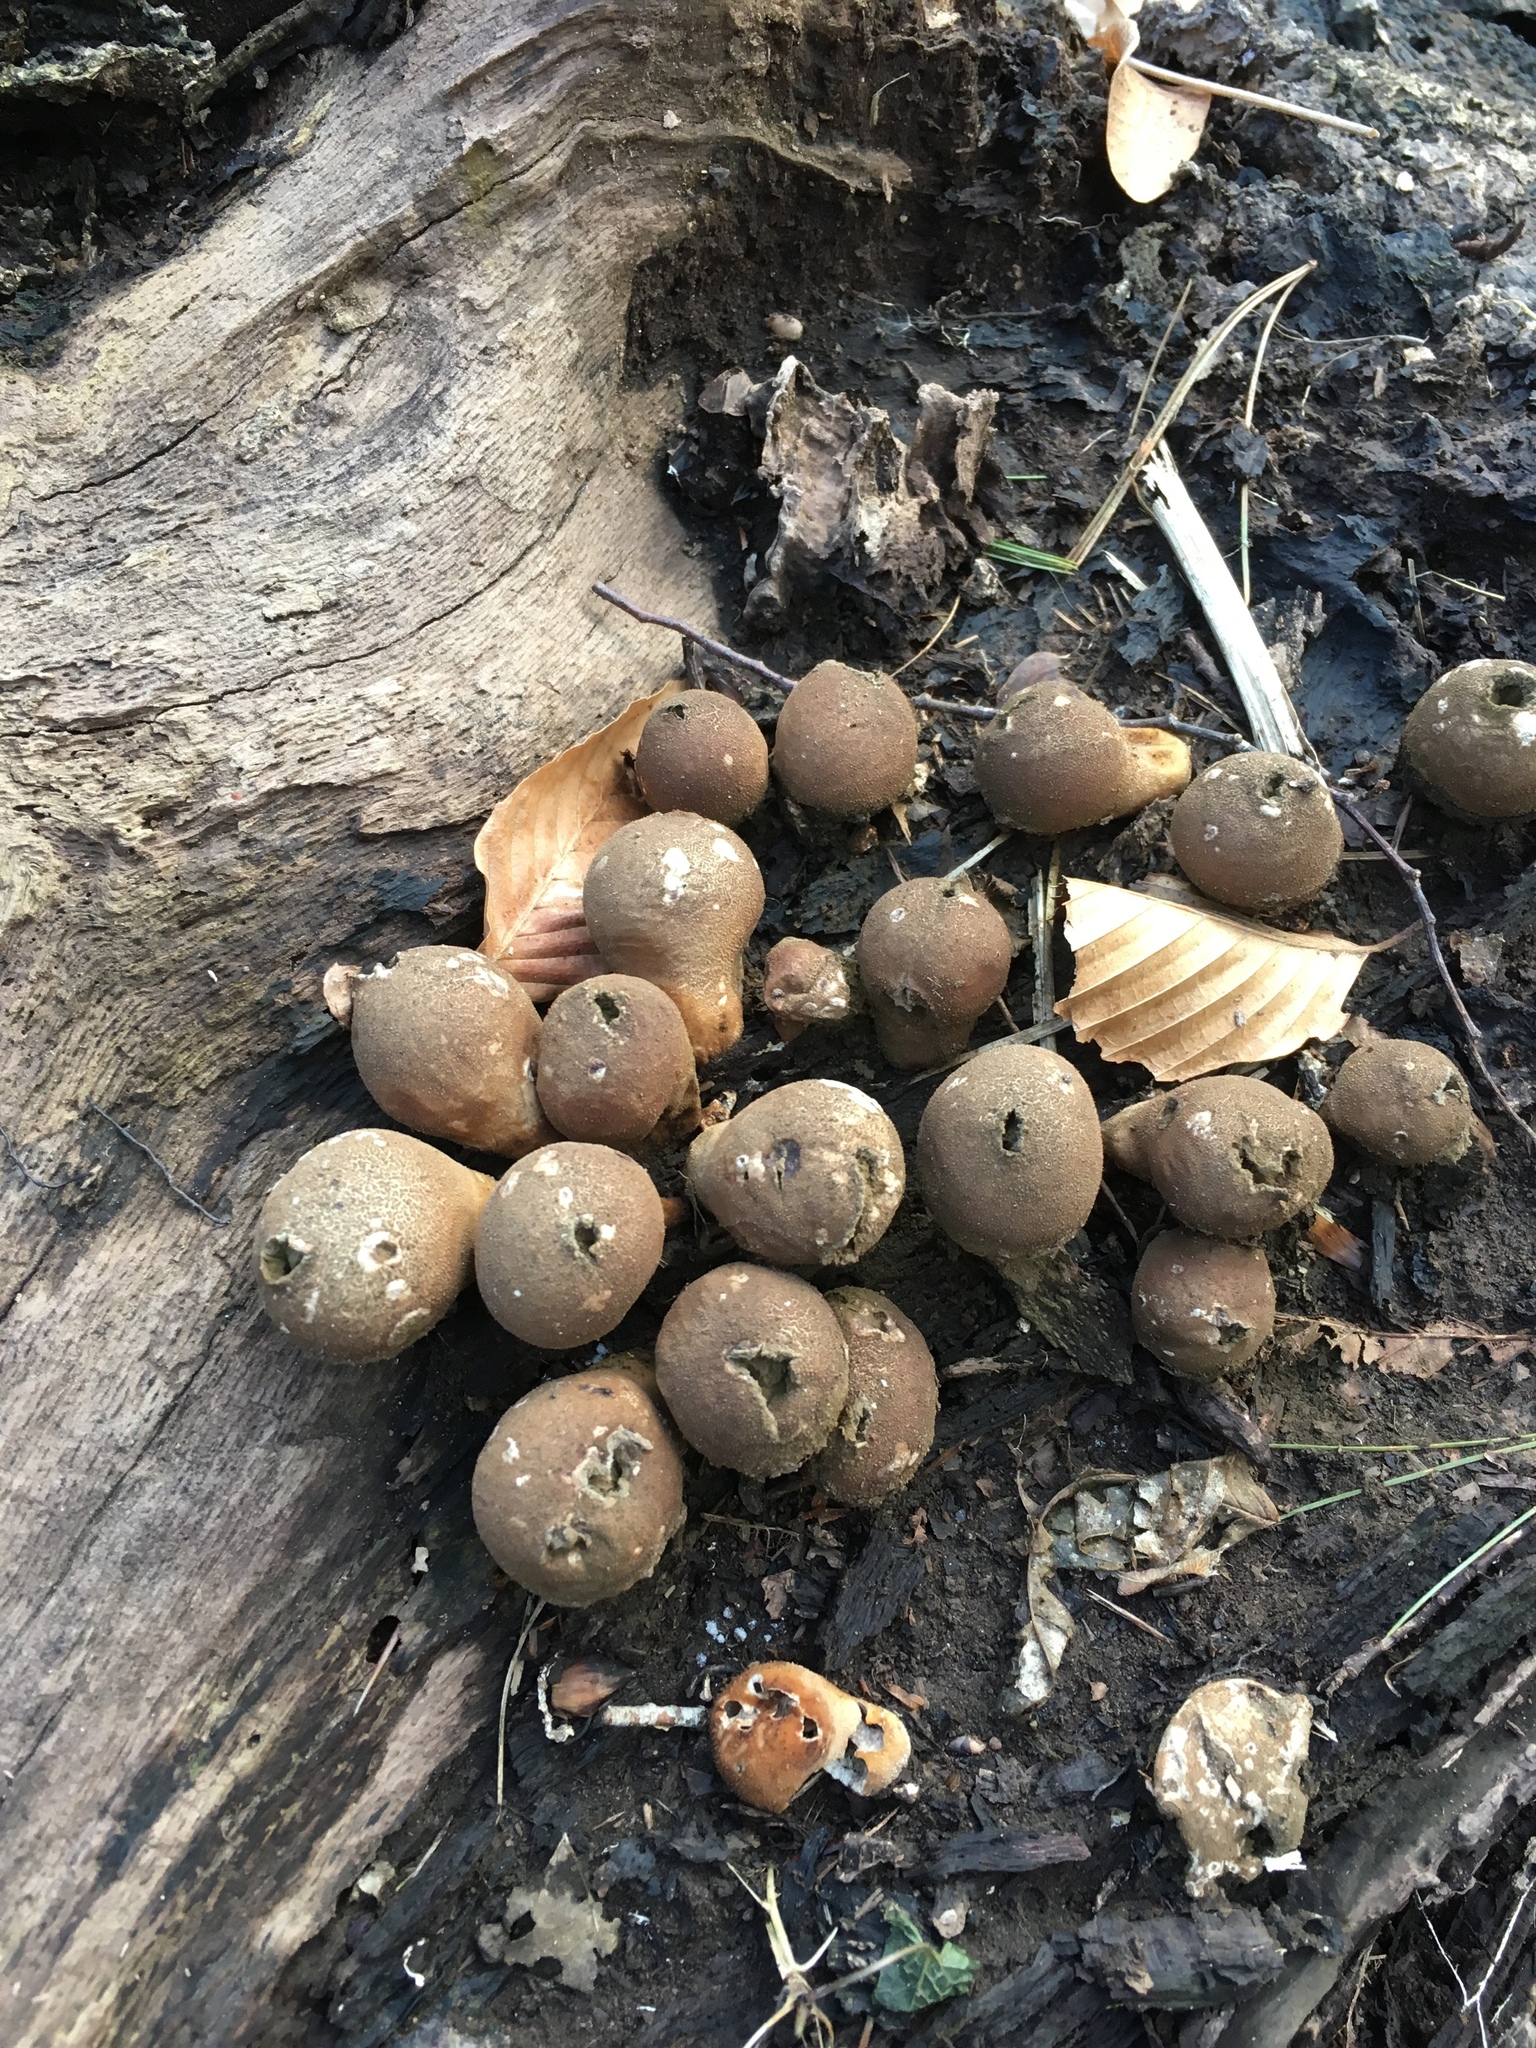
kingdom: Fungi
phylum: Basidiomycota
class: Agaricomycetes
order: Agaricales
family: Lycoperdaceae
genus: Apioperdon
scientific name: Apioperdon pyriforme
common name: Pear-shaped puffball
